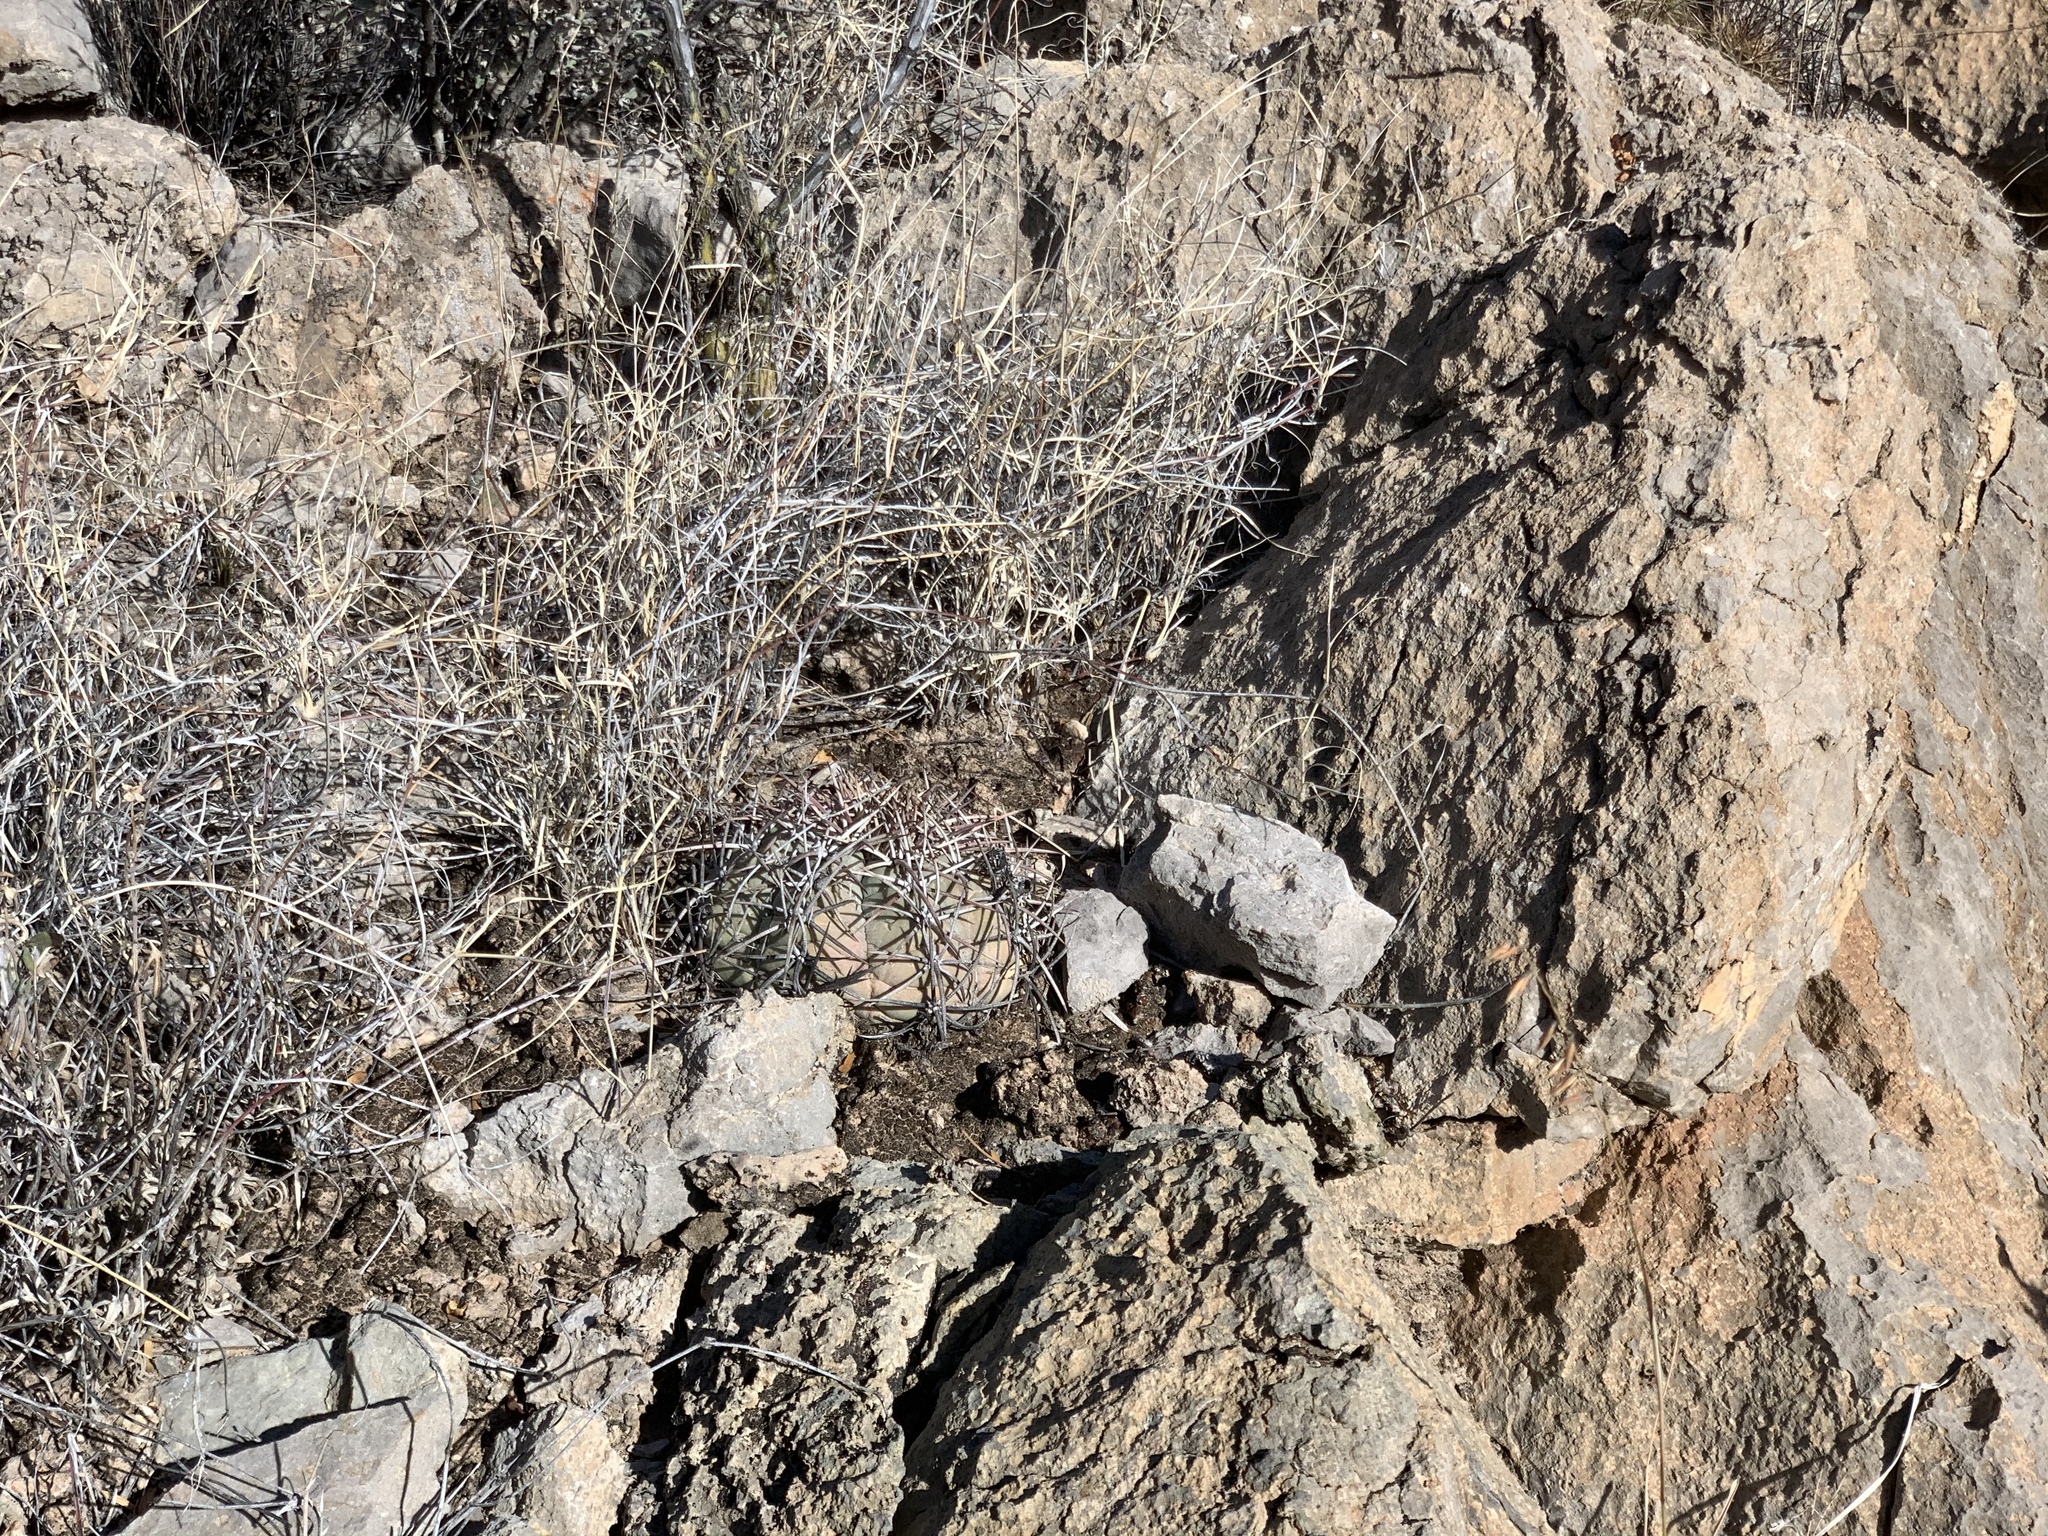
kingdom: Plantae
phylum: Tracheophyta
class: Magnoliopsida
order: Caryophyllales
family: Cactaceae
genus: Echinocactus
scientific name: Echinocactus horizonthalonius
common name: Devilshead
